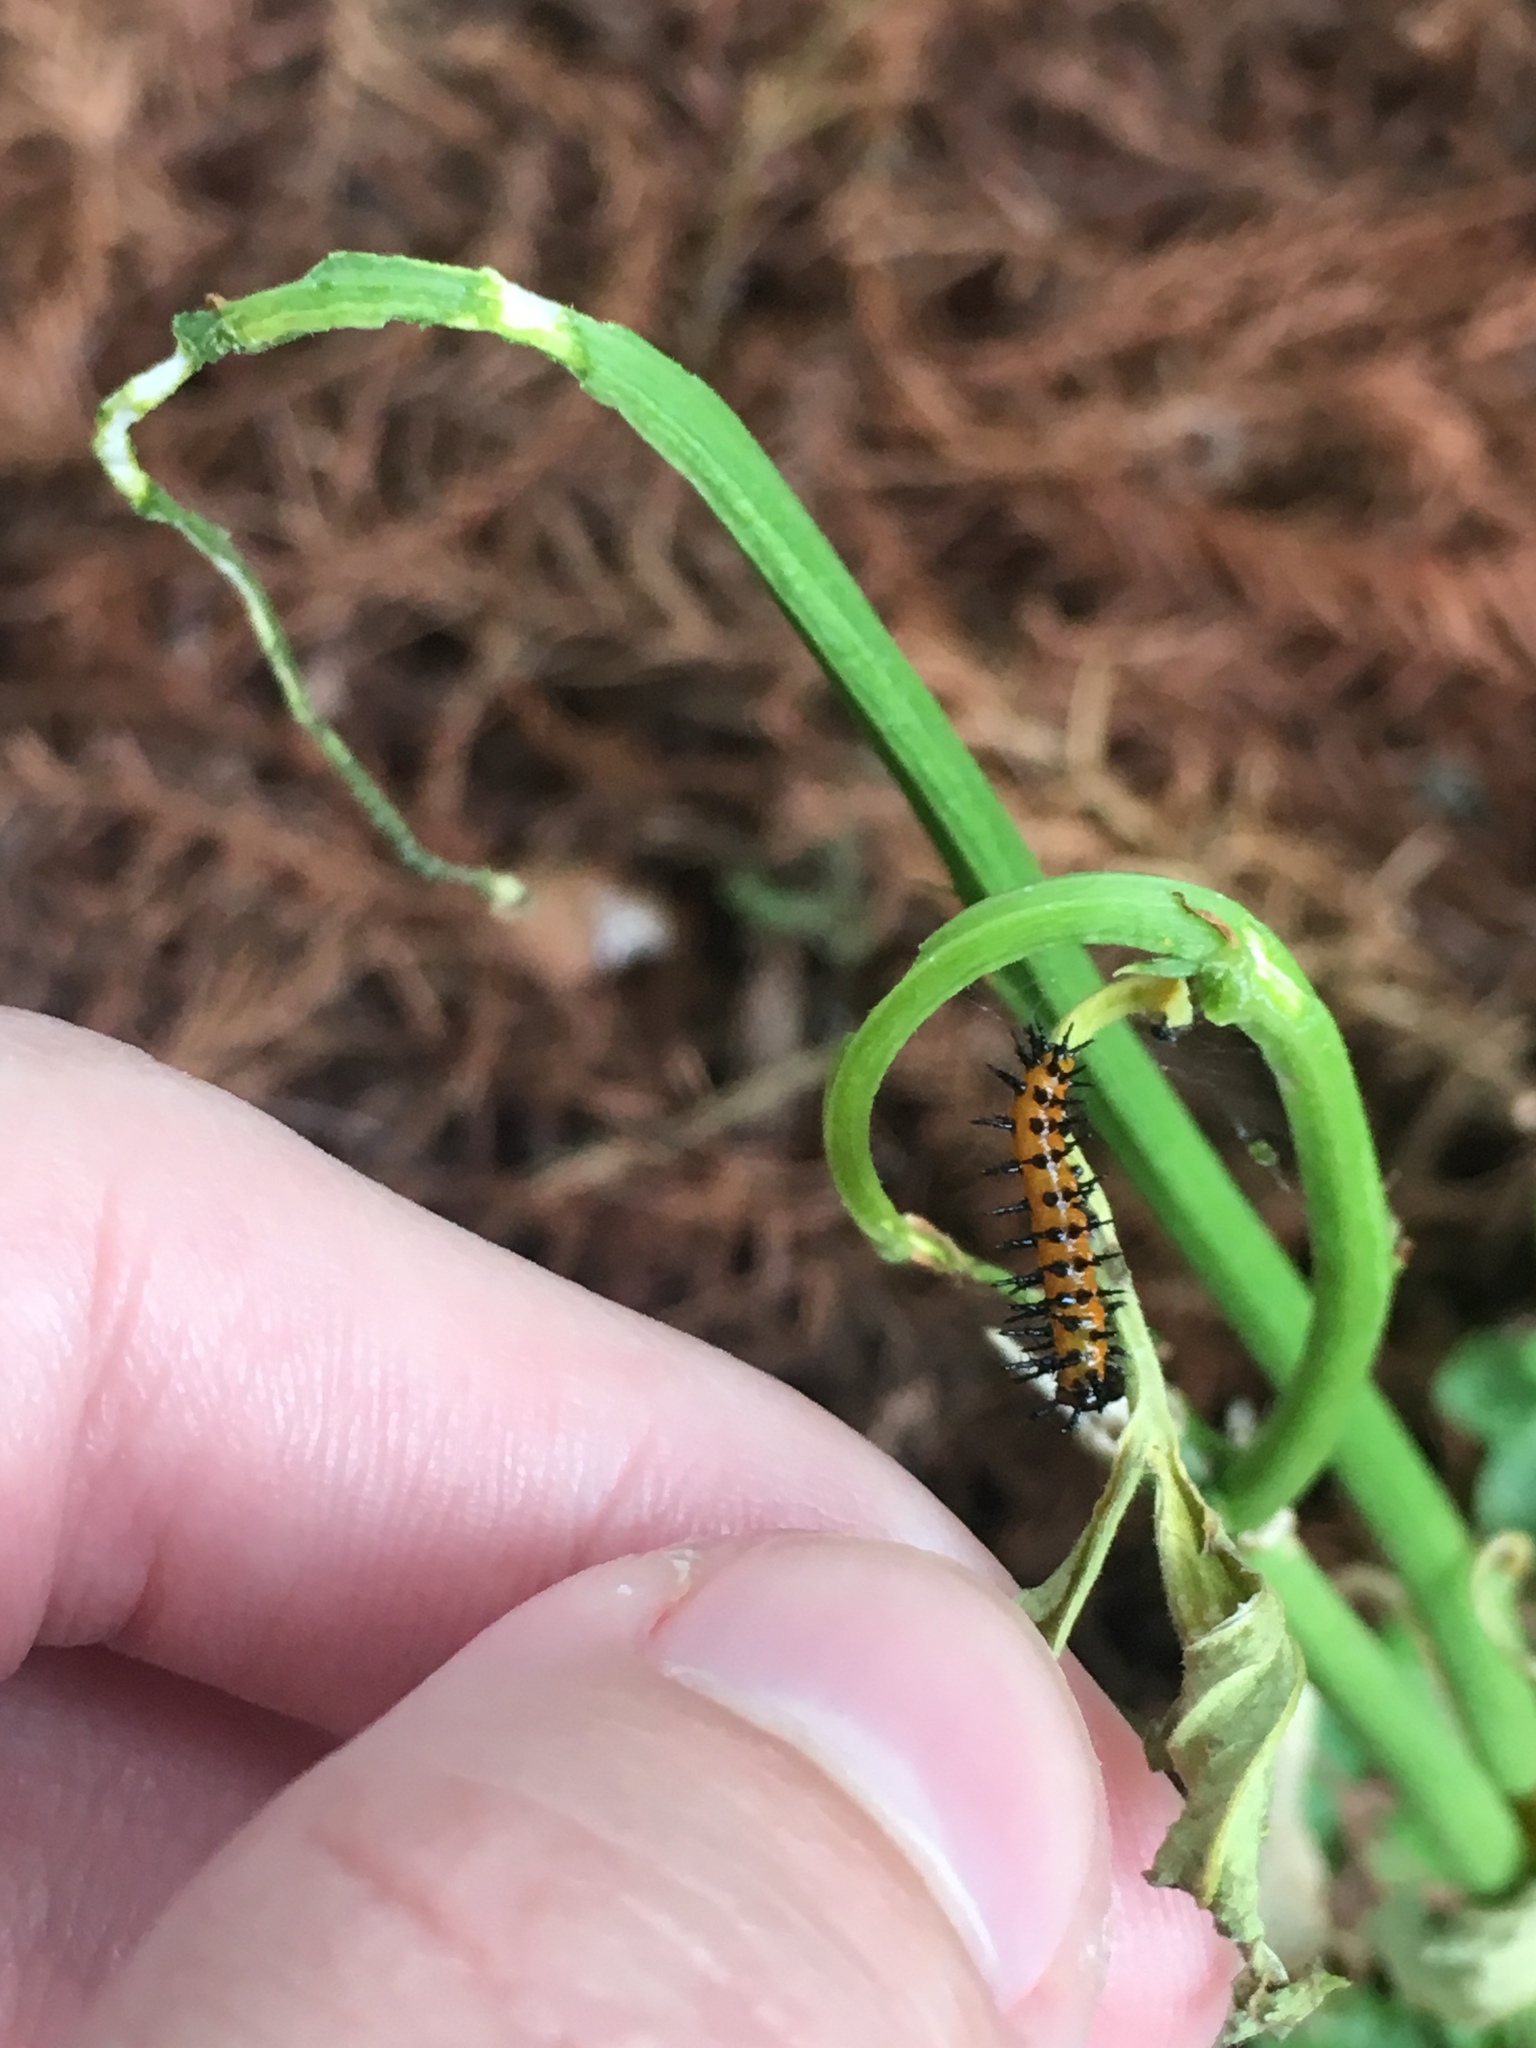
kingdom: Animalia
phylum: Arthropoda
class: Insecta
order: Lepidoptera
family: Nymphalidae
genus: Dione
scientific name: Dione vanillae
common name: Gulf fritillary
